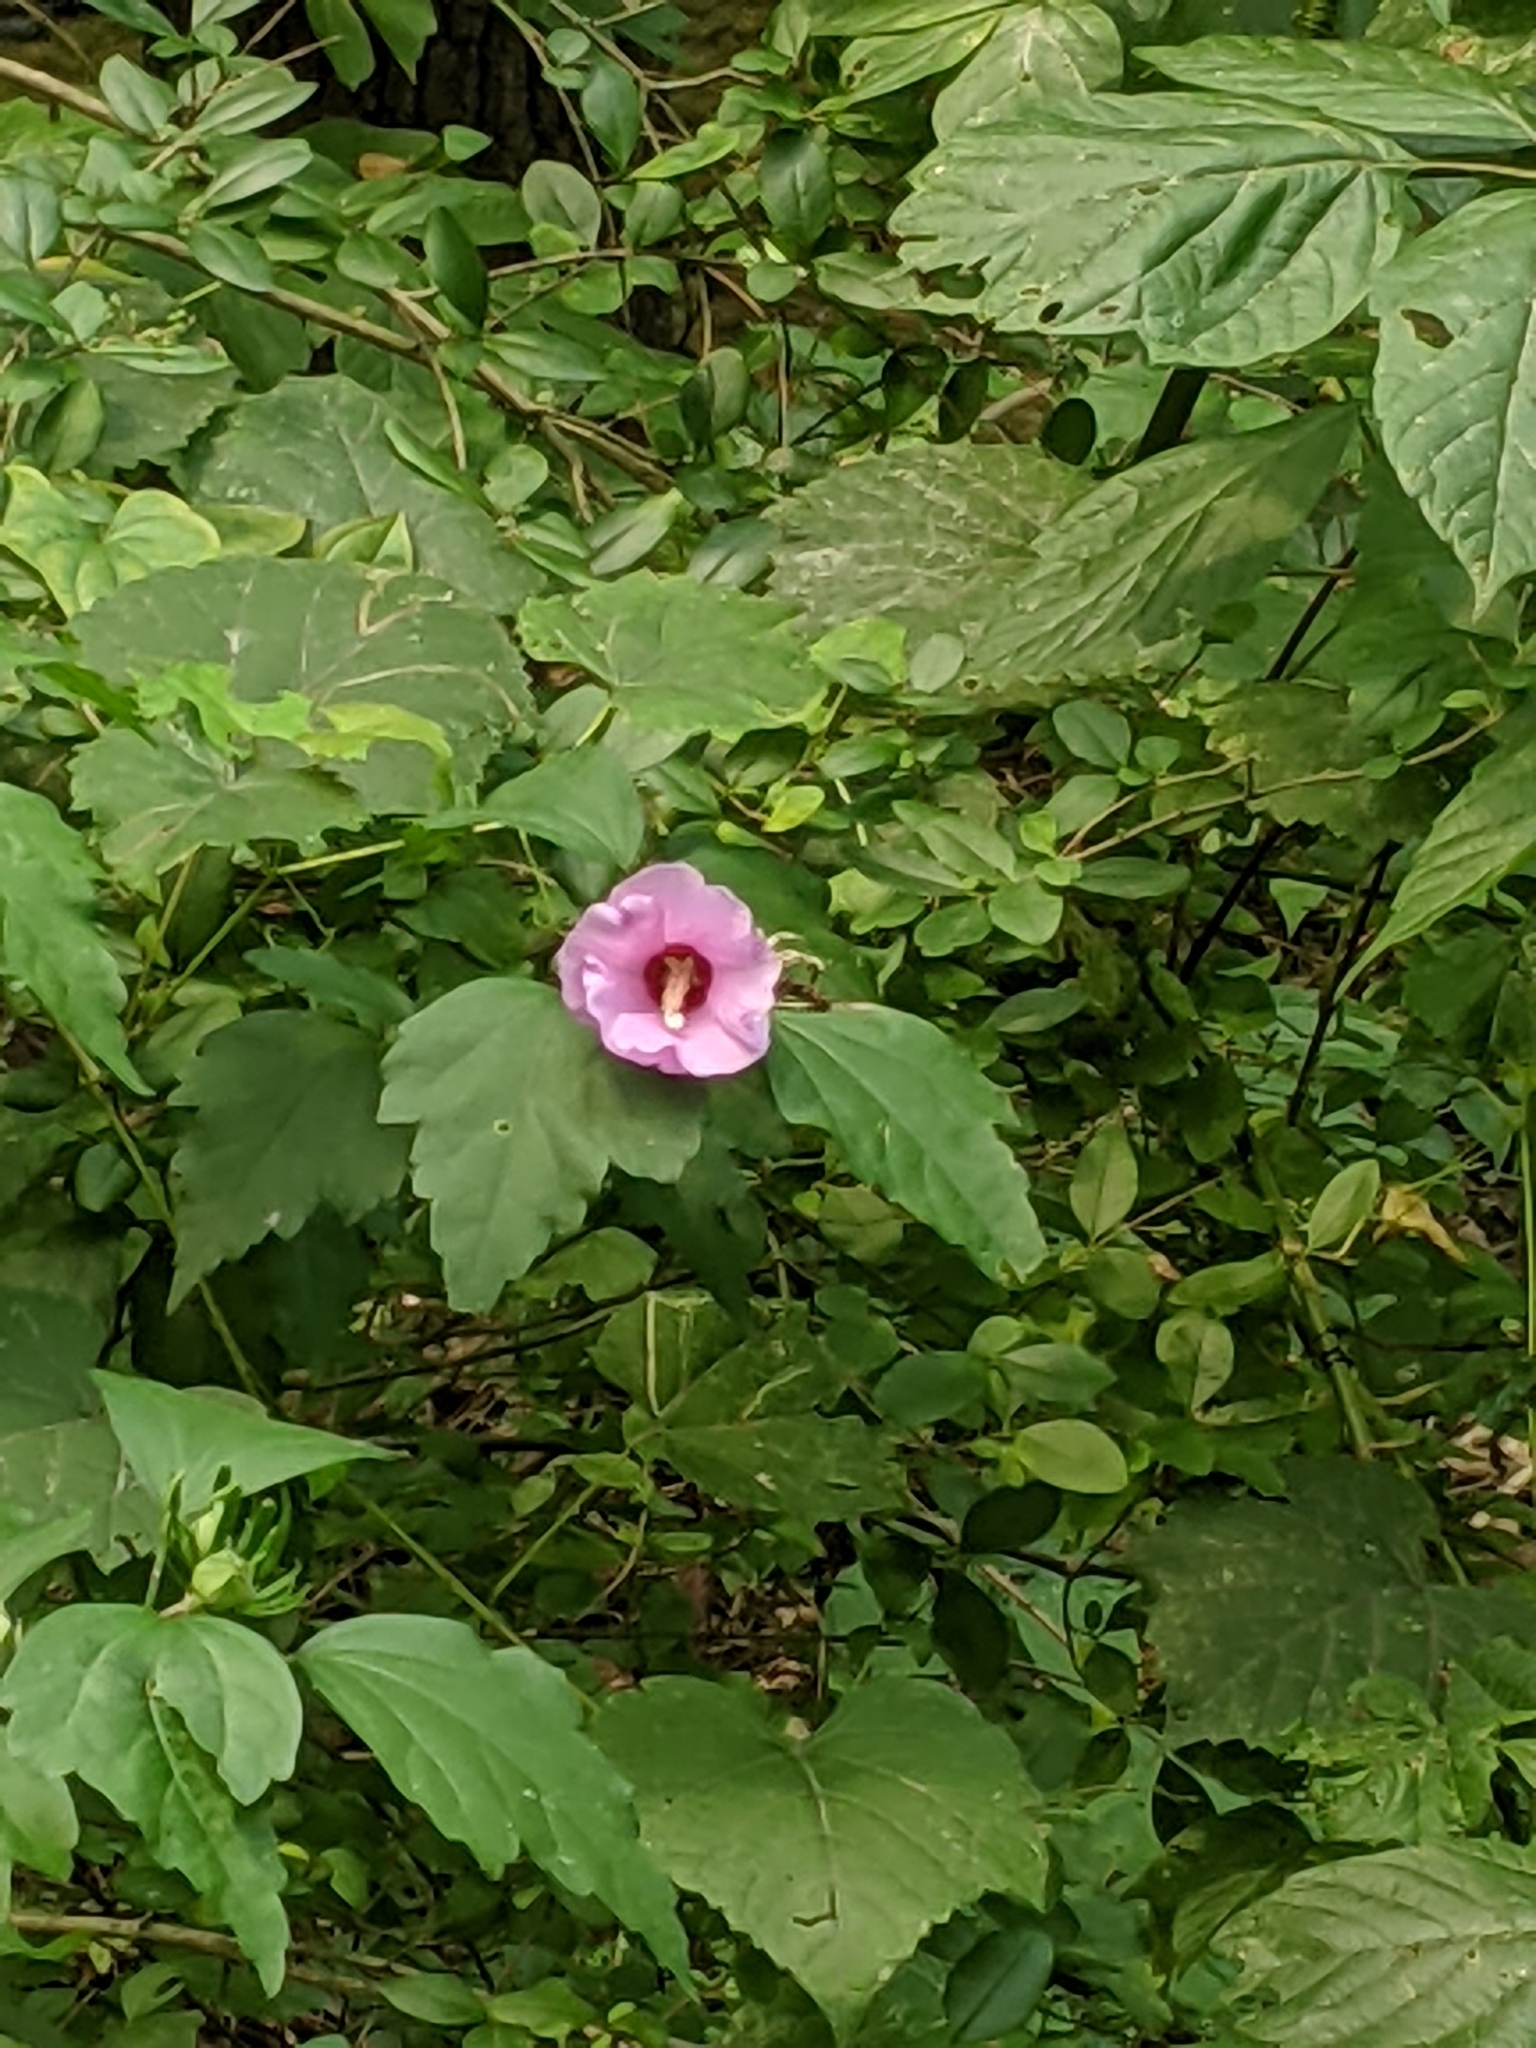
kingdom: Plantae
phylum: Tracheophyta
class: Magnoliopsida
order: Malvales
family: Malvaceae
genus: Hibiscus
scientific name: Hibiscus syriacus
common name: Syrian ketmia
